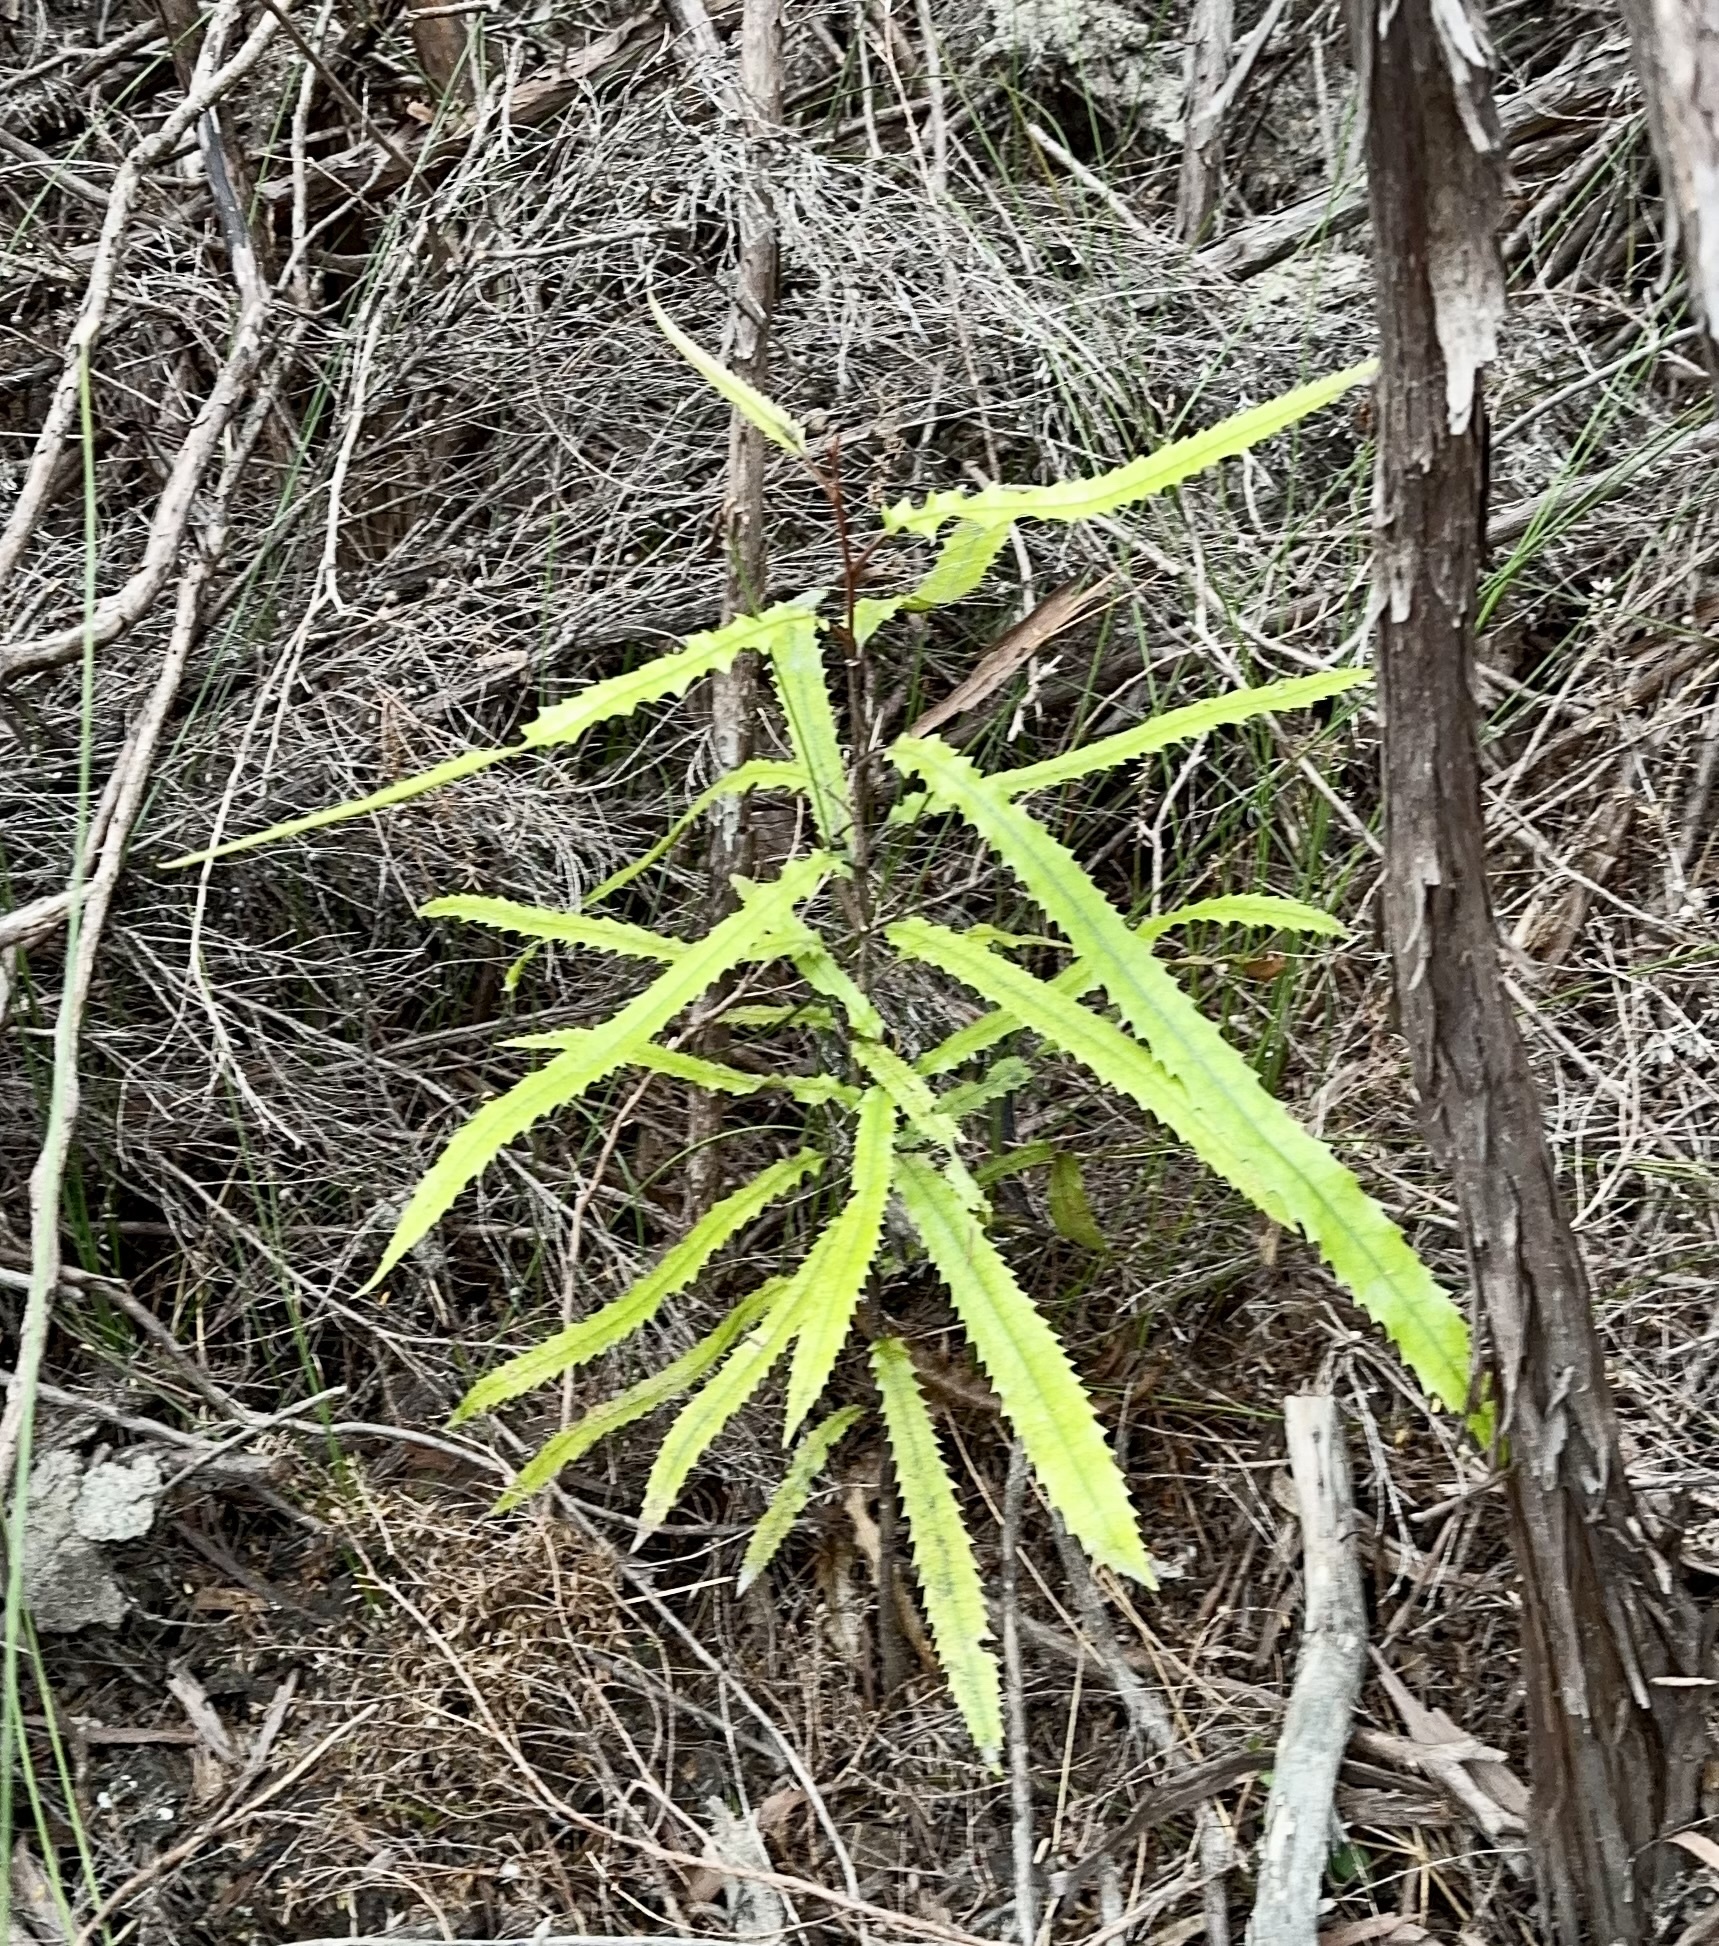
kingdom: Plantae
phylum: Tracheophyta
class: Magnoliopsida
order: Proteales
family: Proteaceae
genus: Knightia
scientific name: Knightia excelsa
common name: New zealand-honeysuckle
